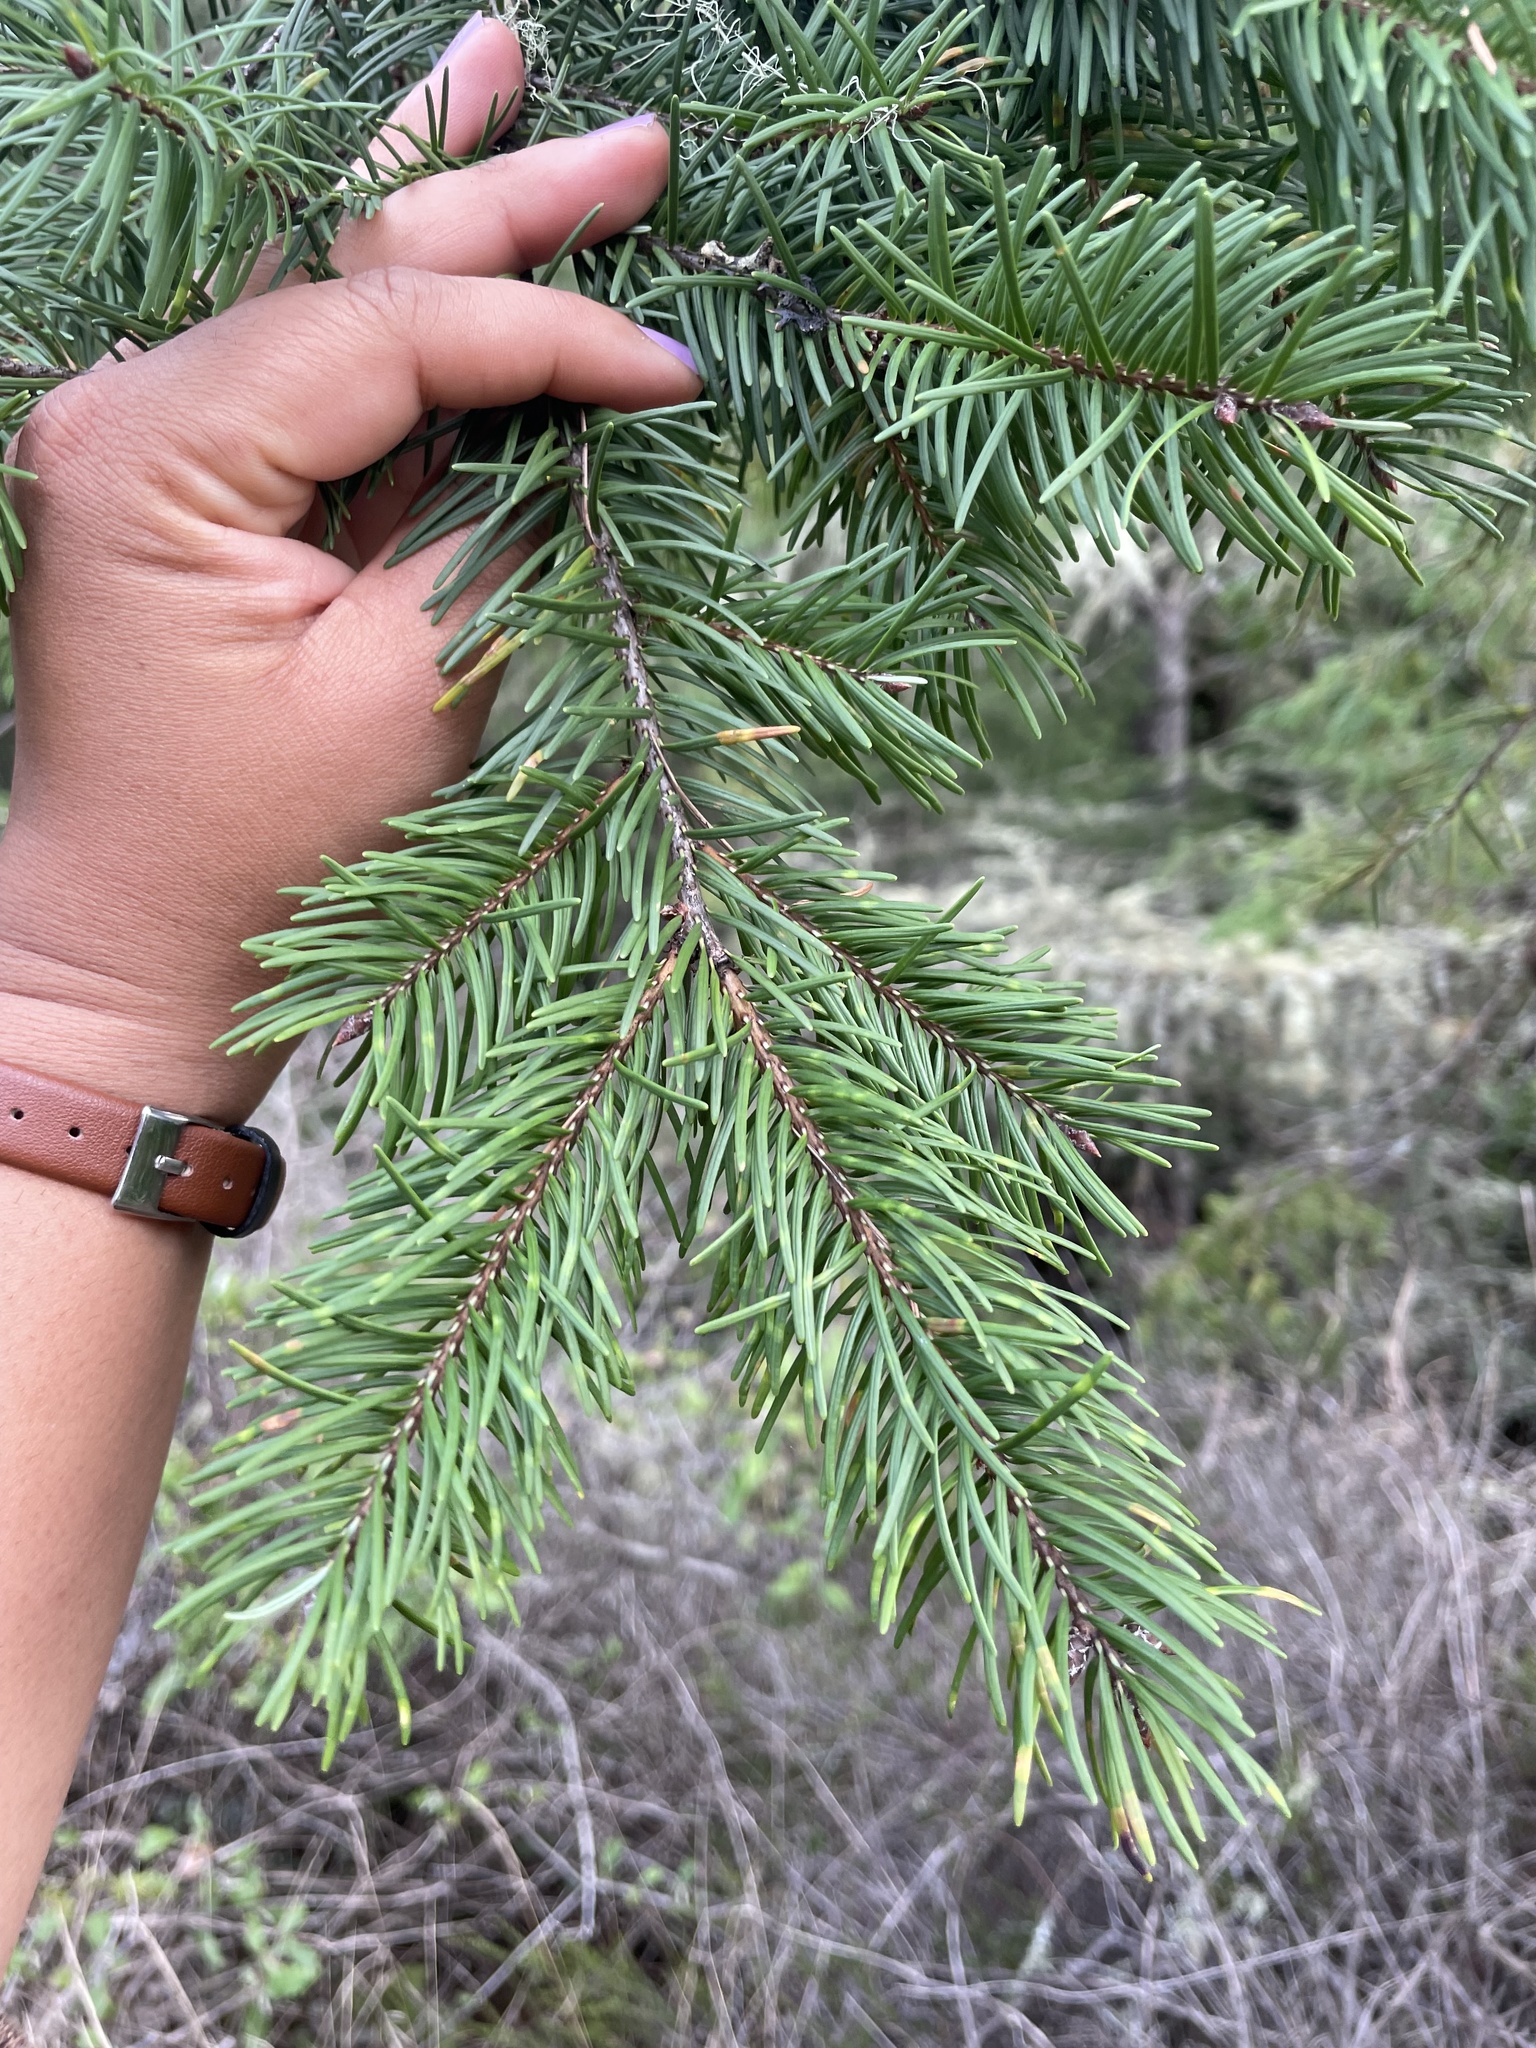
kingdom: Plantae
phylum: Tracheophyta
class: Pinopsida
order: Pinales
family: Pinaceae
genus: Pseudotsuga
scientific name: Pseudotsuga menziesii
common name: Douglas fir
